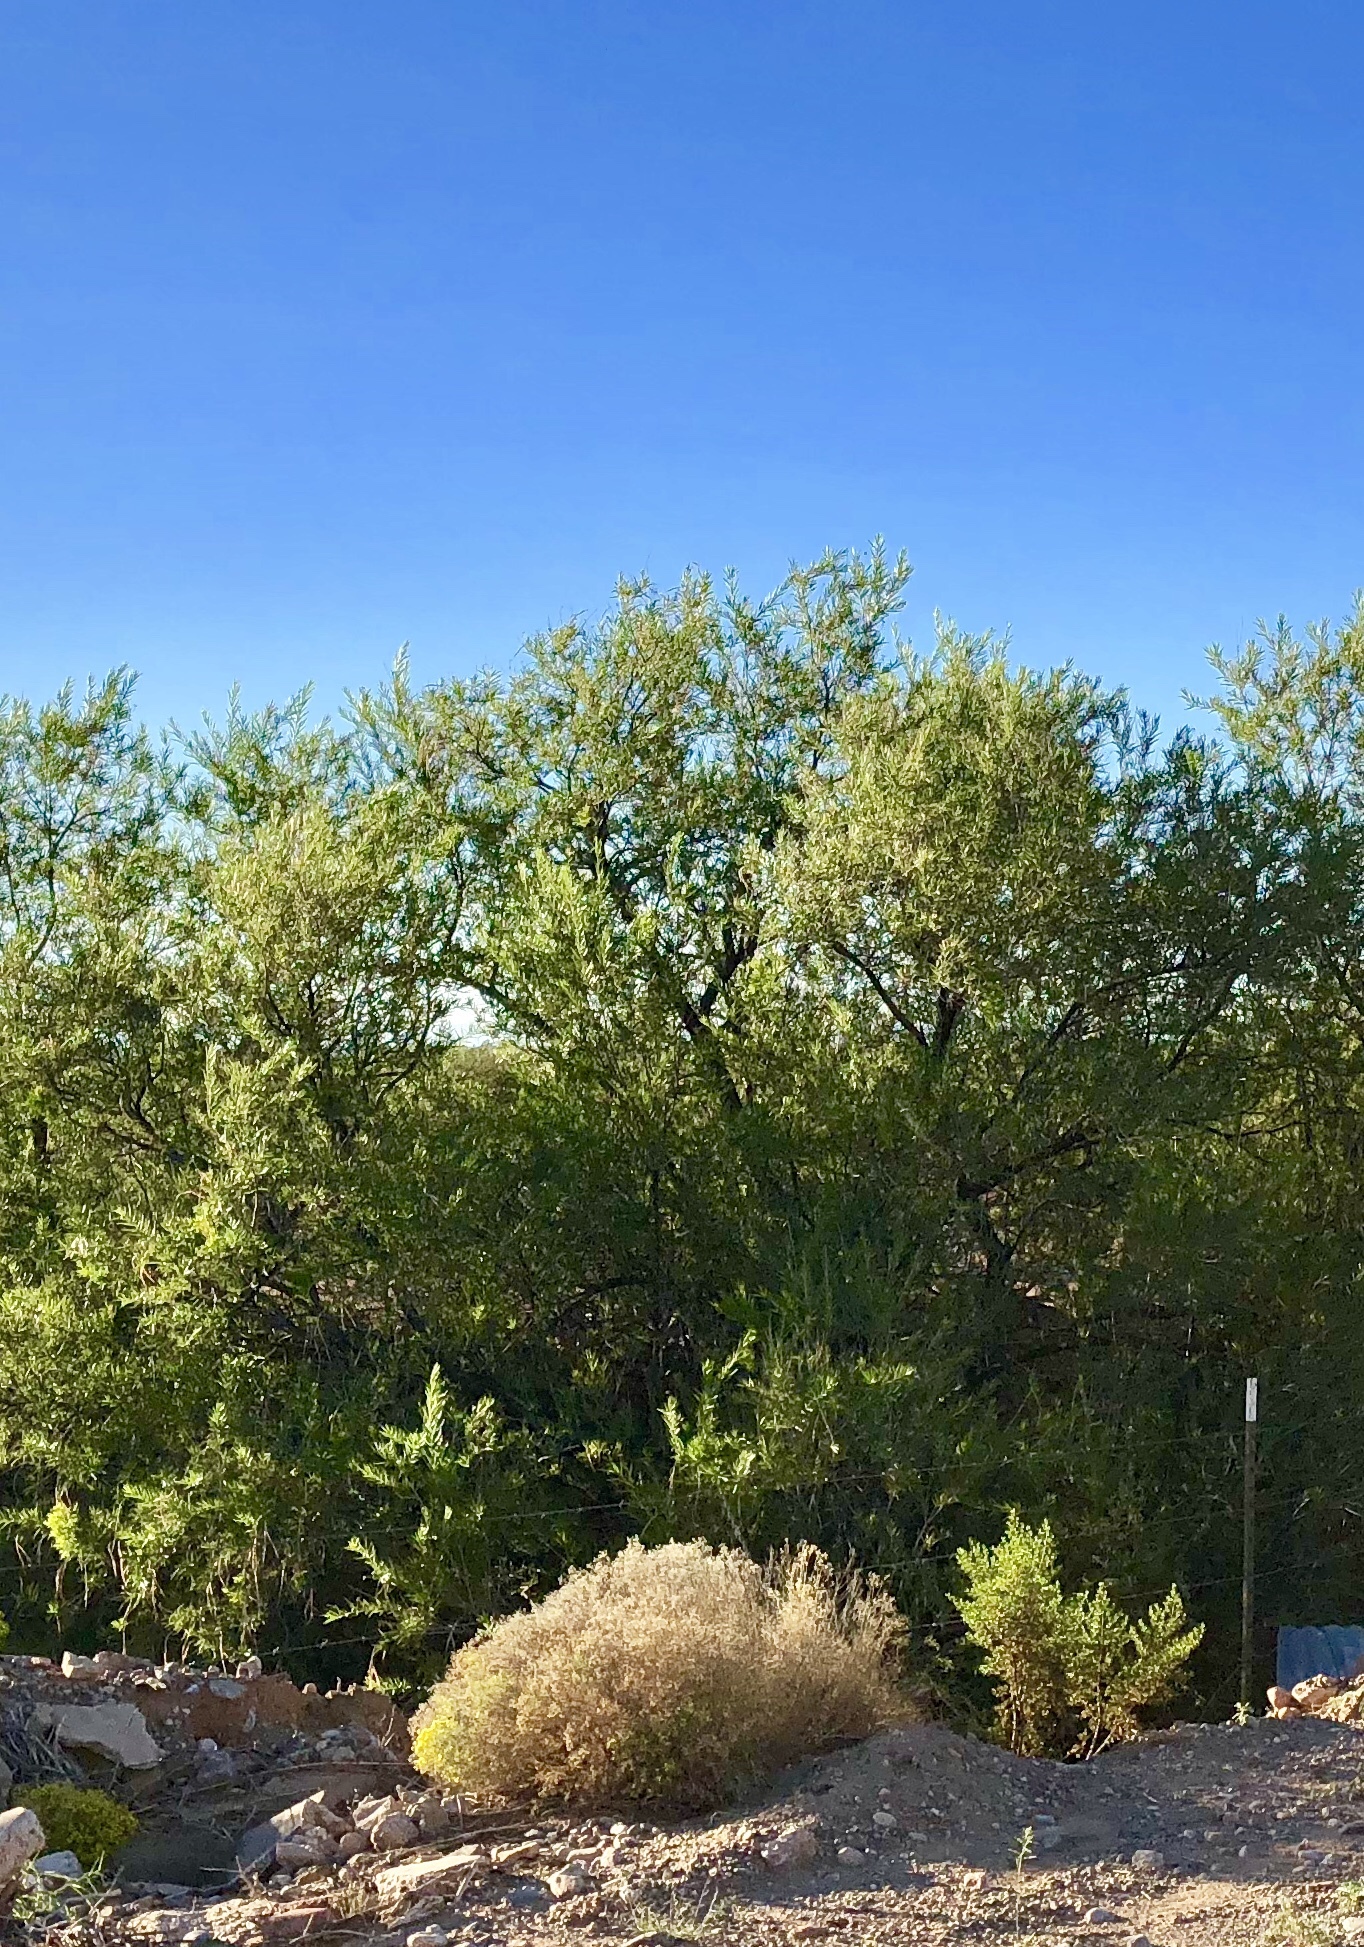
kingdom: Plantae
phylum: Tracheophyta
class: Magnoliopsida
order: Fabales
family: Fabaceae
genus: Prosopis
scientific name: Prosopis glandulosa
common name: Honey mesquite
